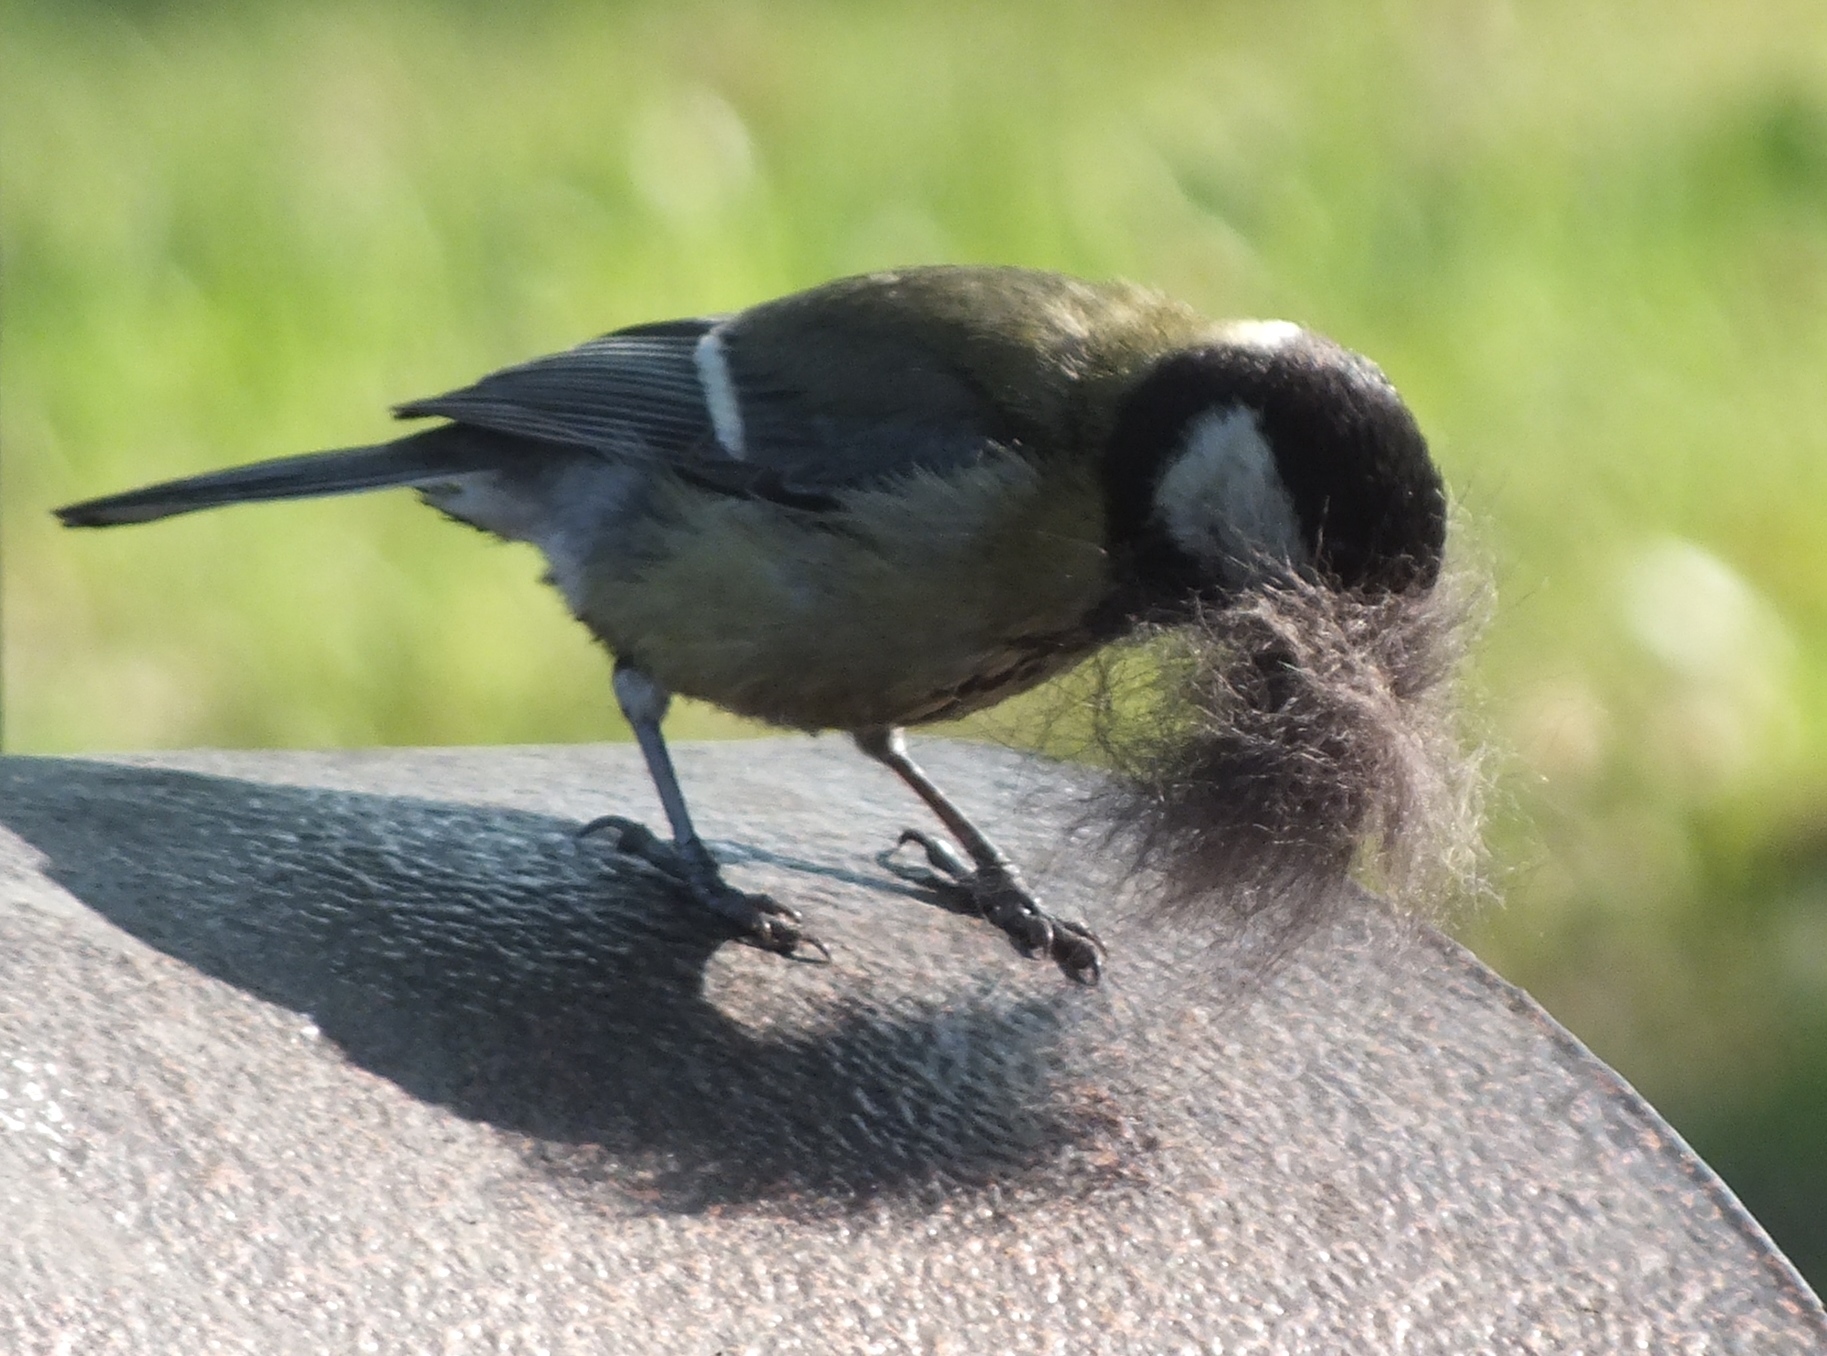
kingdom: Animalia
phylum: Chordata
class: Aves
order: Passeriformes
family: Paridae
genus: Parus
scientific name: Parus major
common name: Great tit
